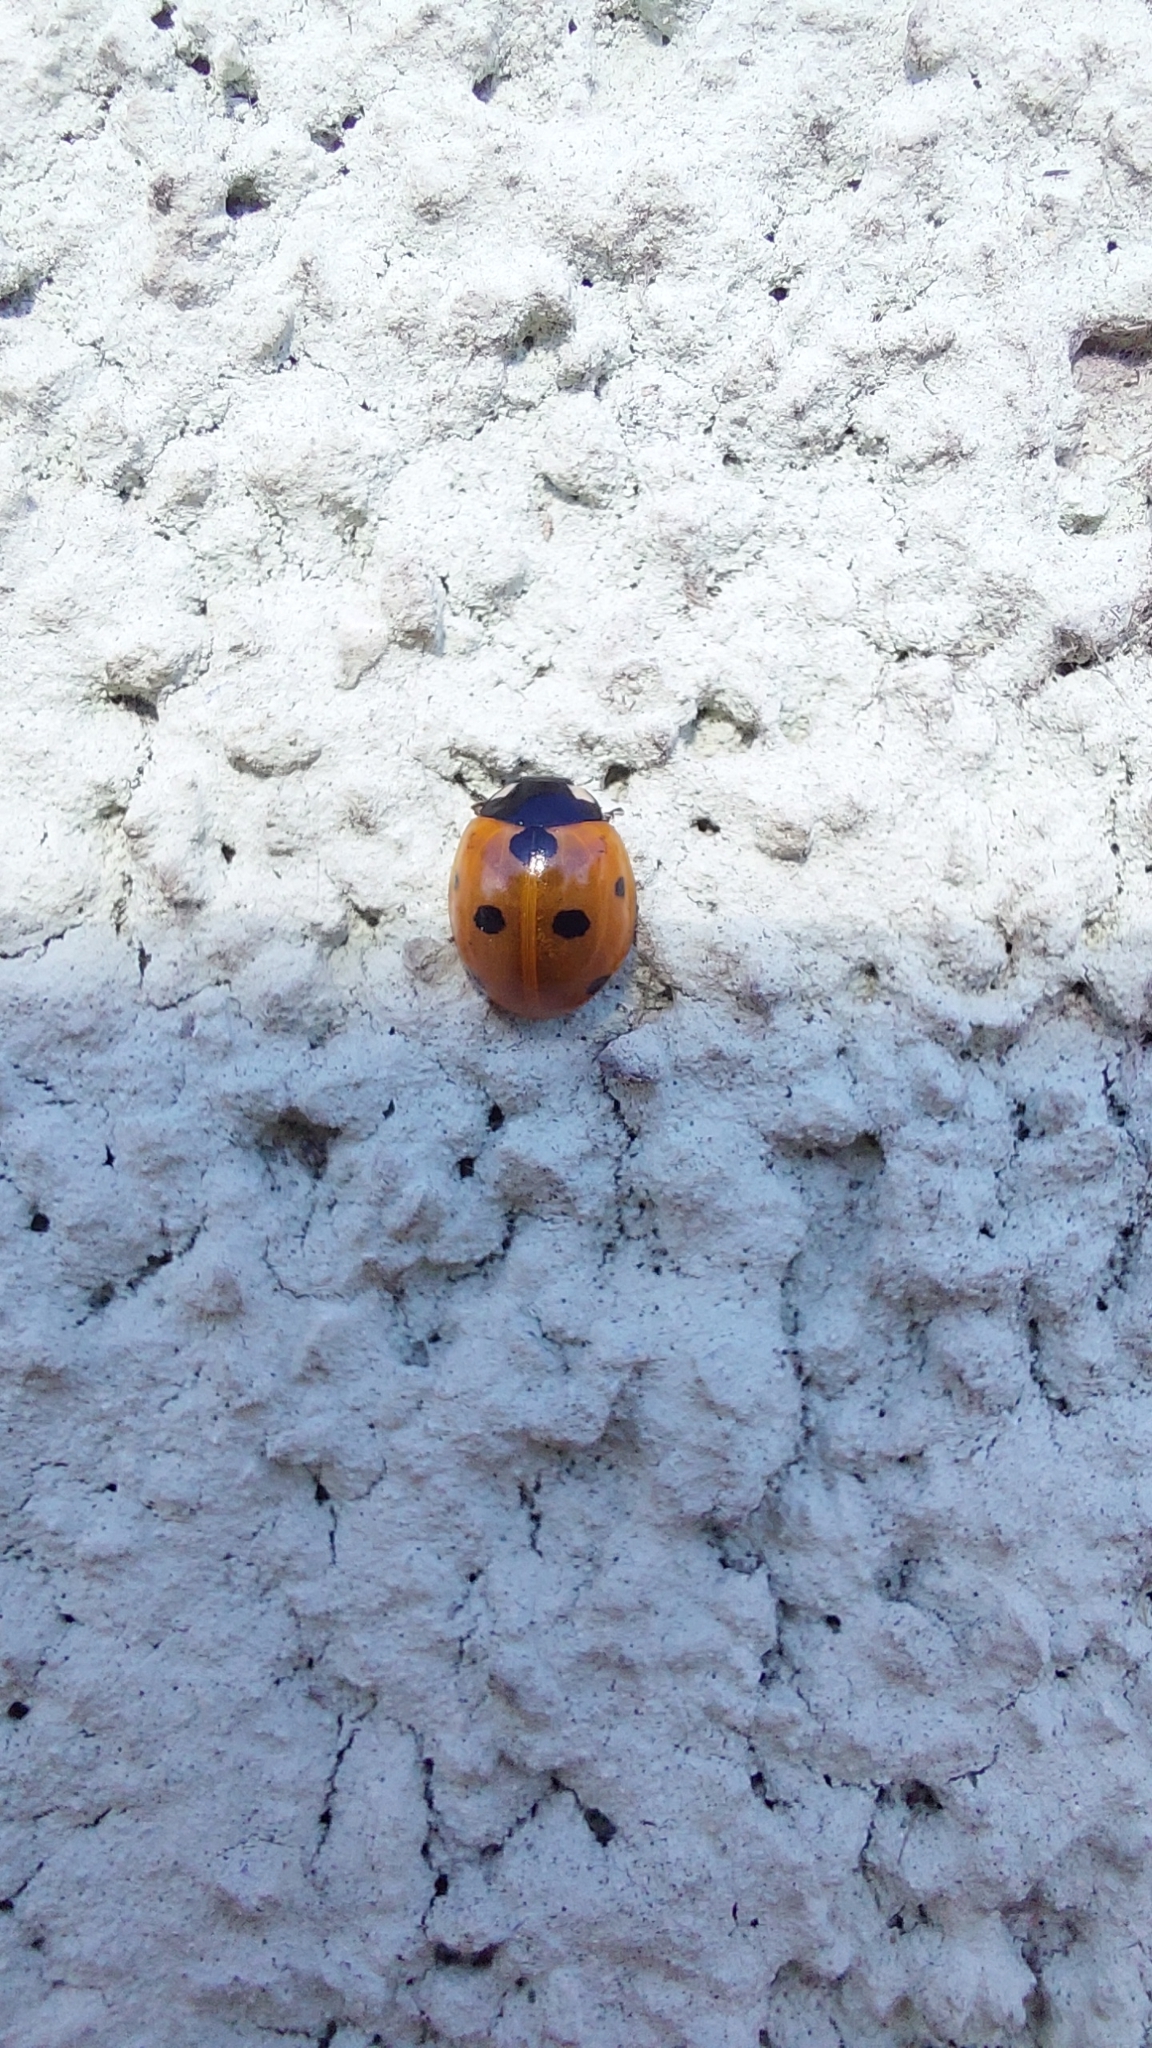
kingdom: Animalia
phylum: Arthropoda
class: Insecta
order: Coleoptera
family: Coccinellidae
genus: Coccinella
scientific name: Coccinella septempunctata
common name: Sevenspotted lady beetle
